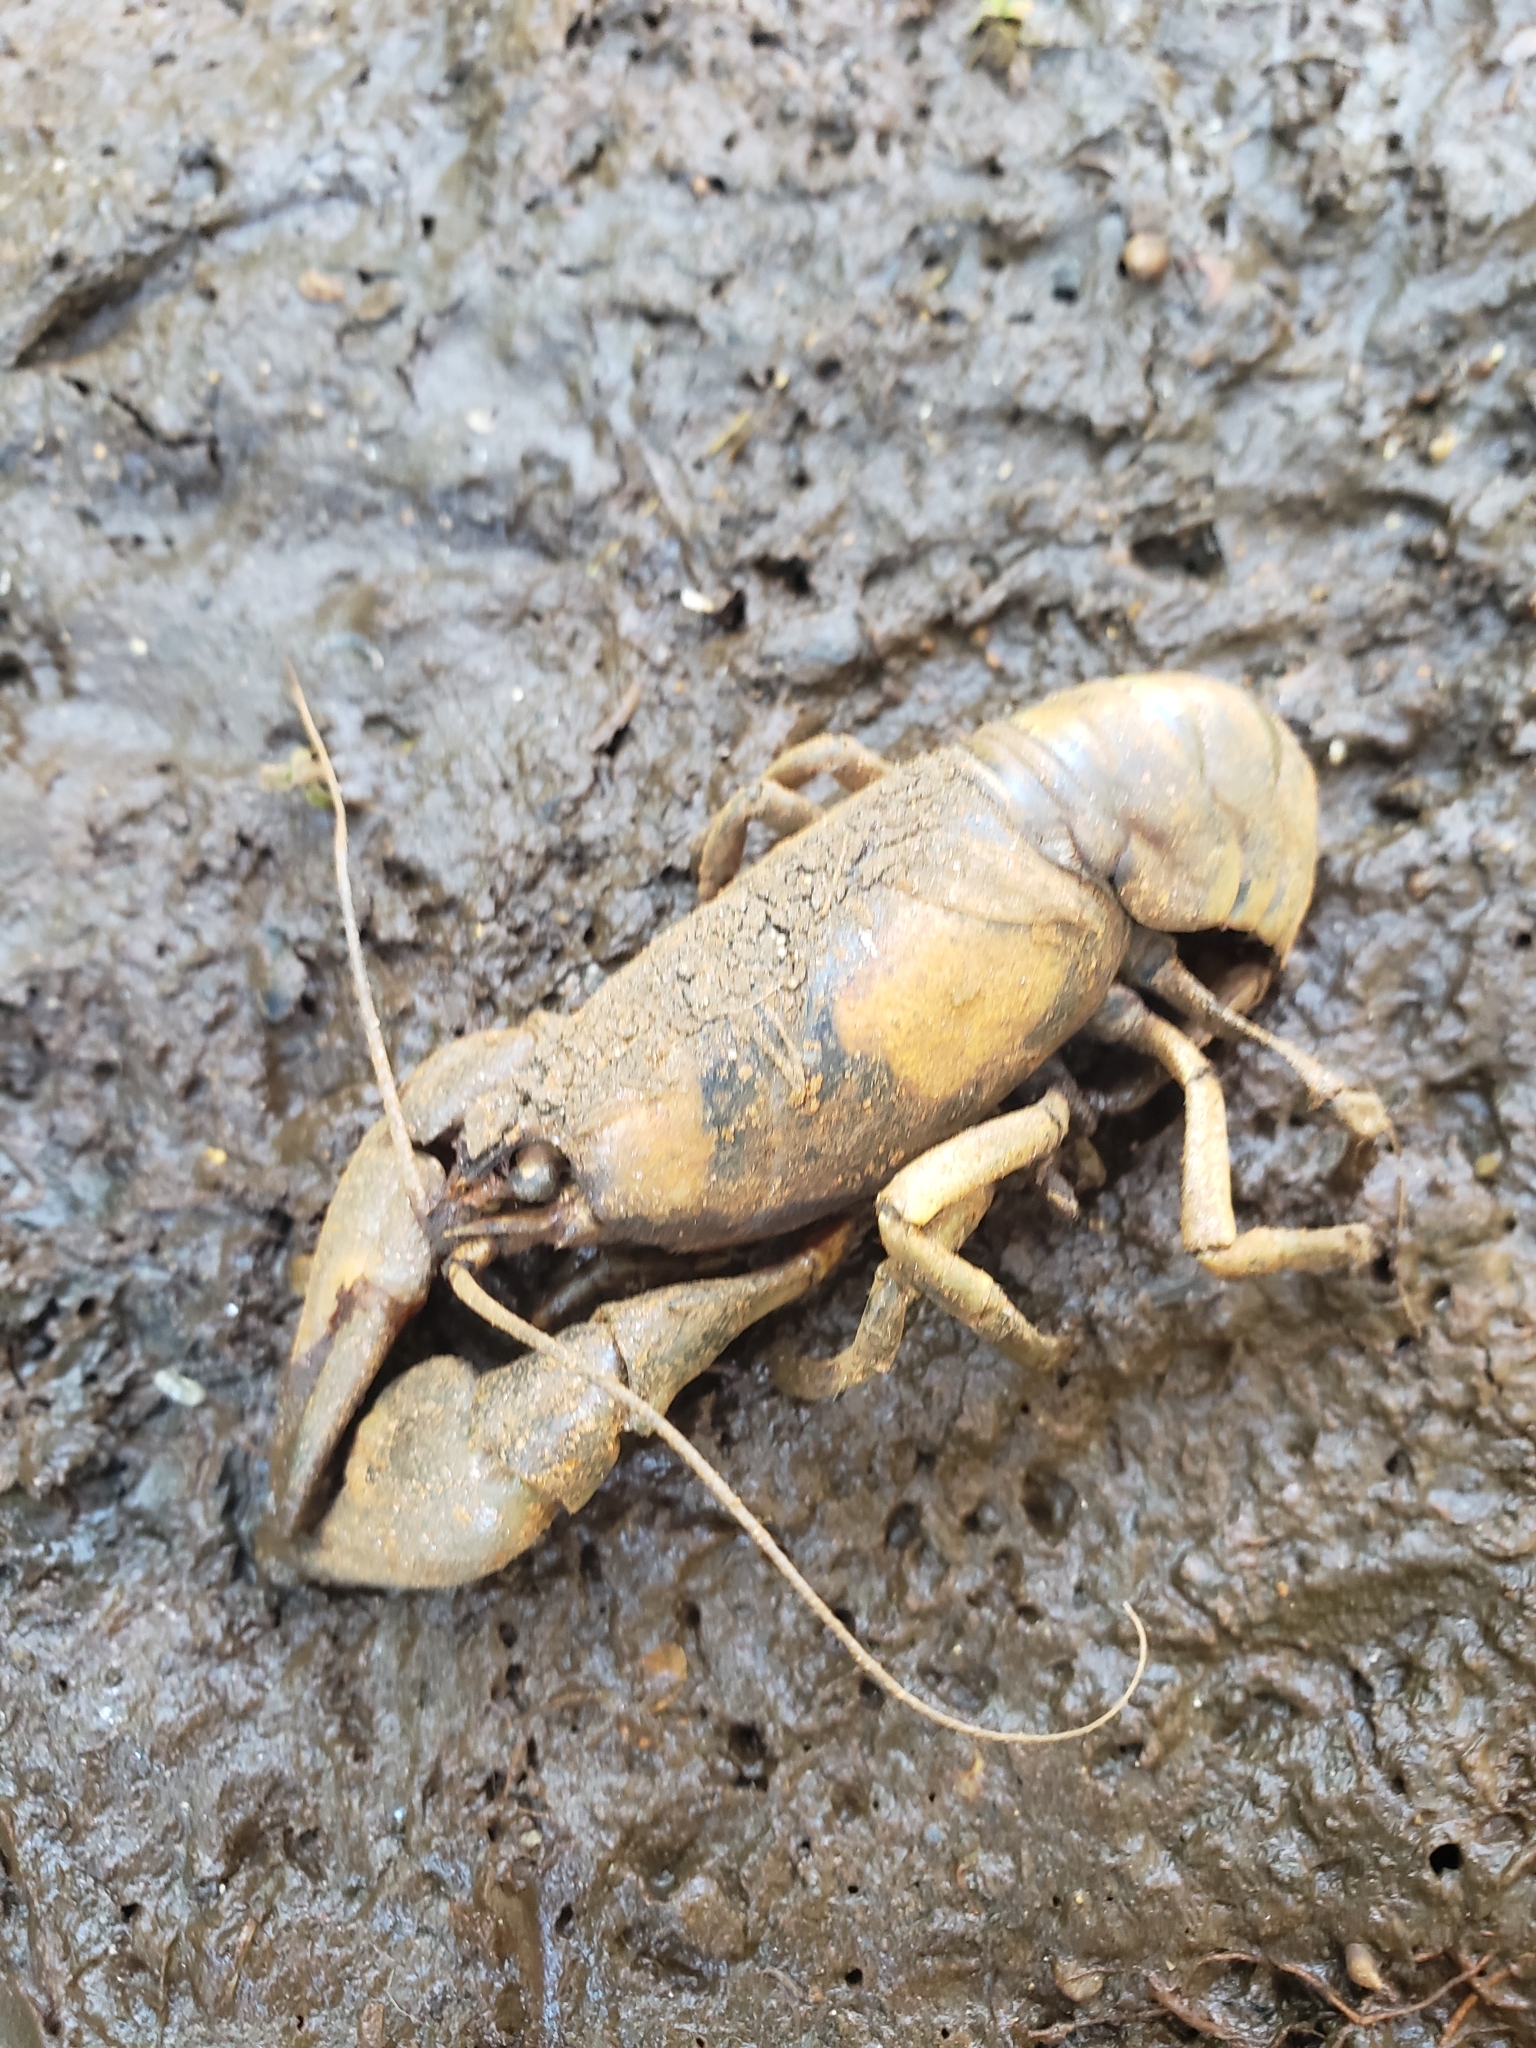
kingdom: Animalia
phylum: Arthropoda
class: Malacostraca
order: Decapoda
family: Astacidae
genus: Pacifastacus
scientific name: Pacifastacus leniusculus
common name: Signal crayfish
